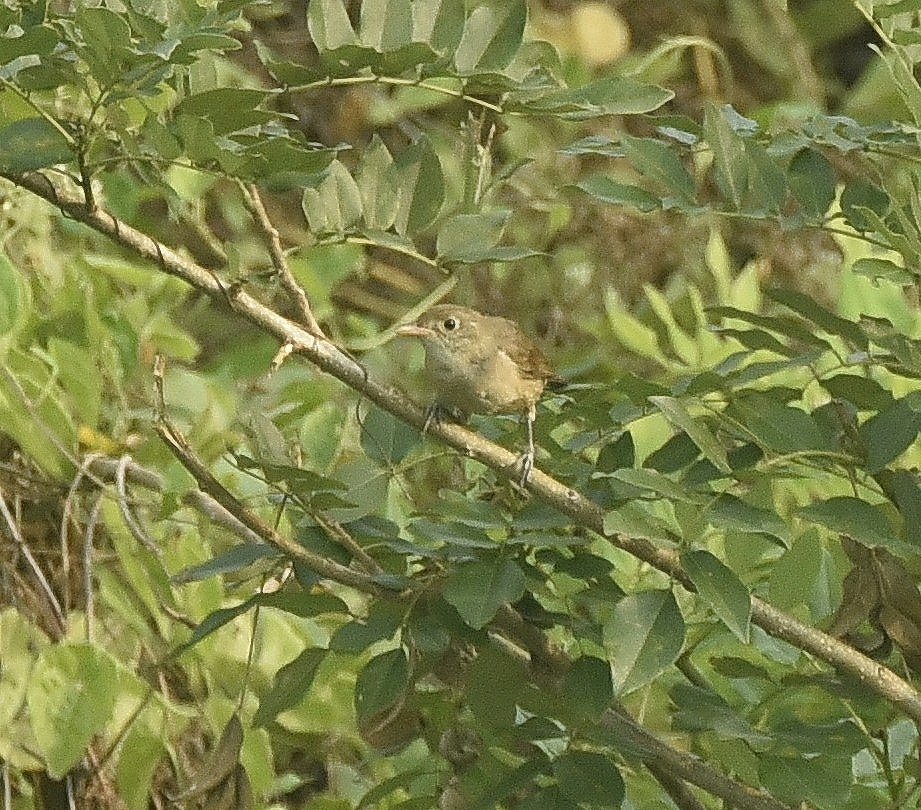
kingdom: Animalia
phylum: Chordata
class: Aves
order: Passeriformes
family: Acrocephalidae
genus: Iduna
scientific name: Iduna aedon
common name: Thick-billed warbler
